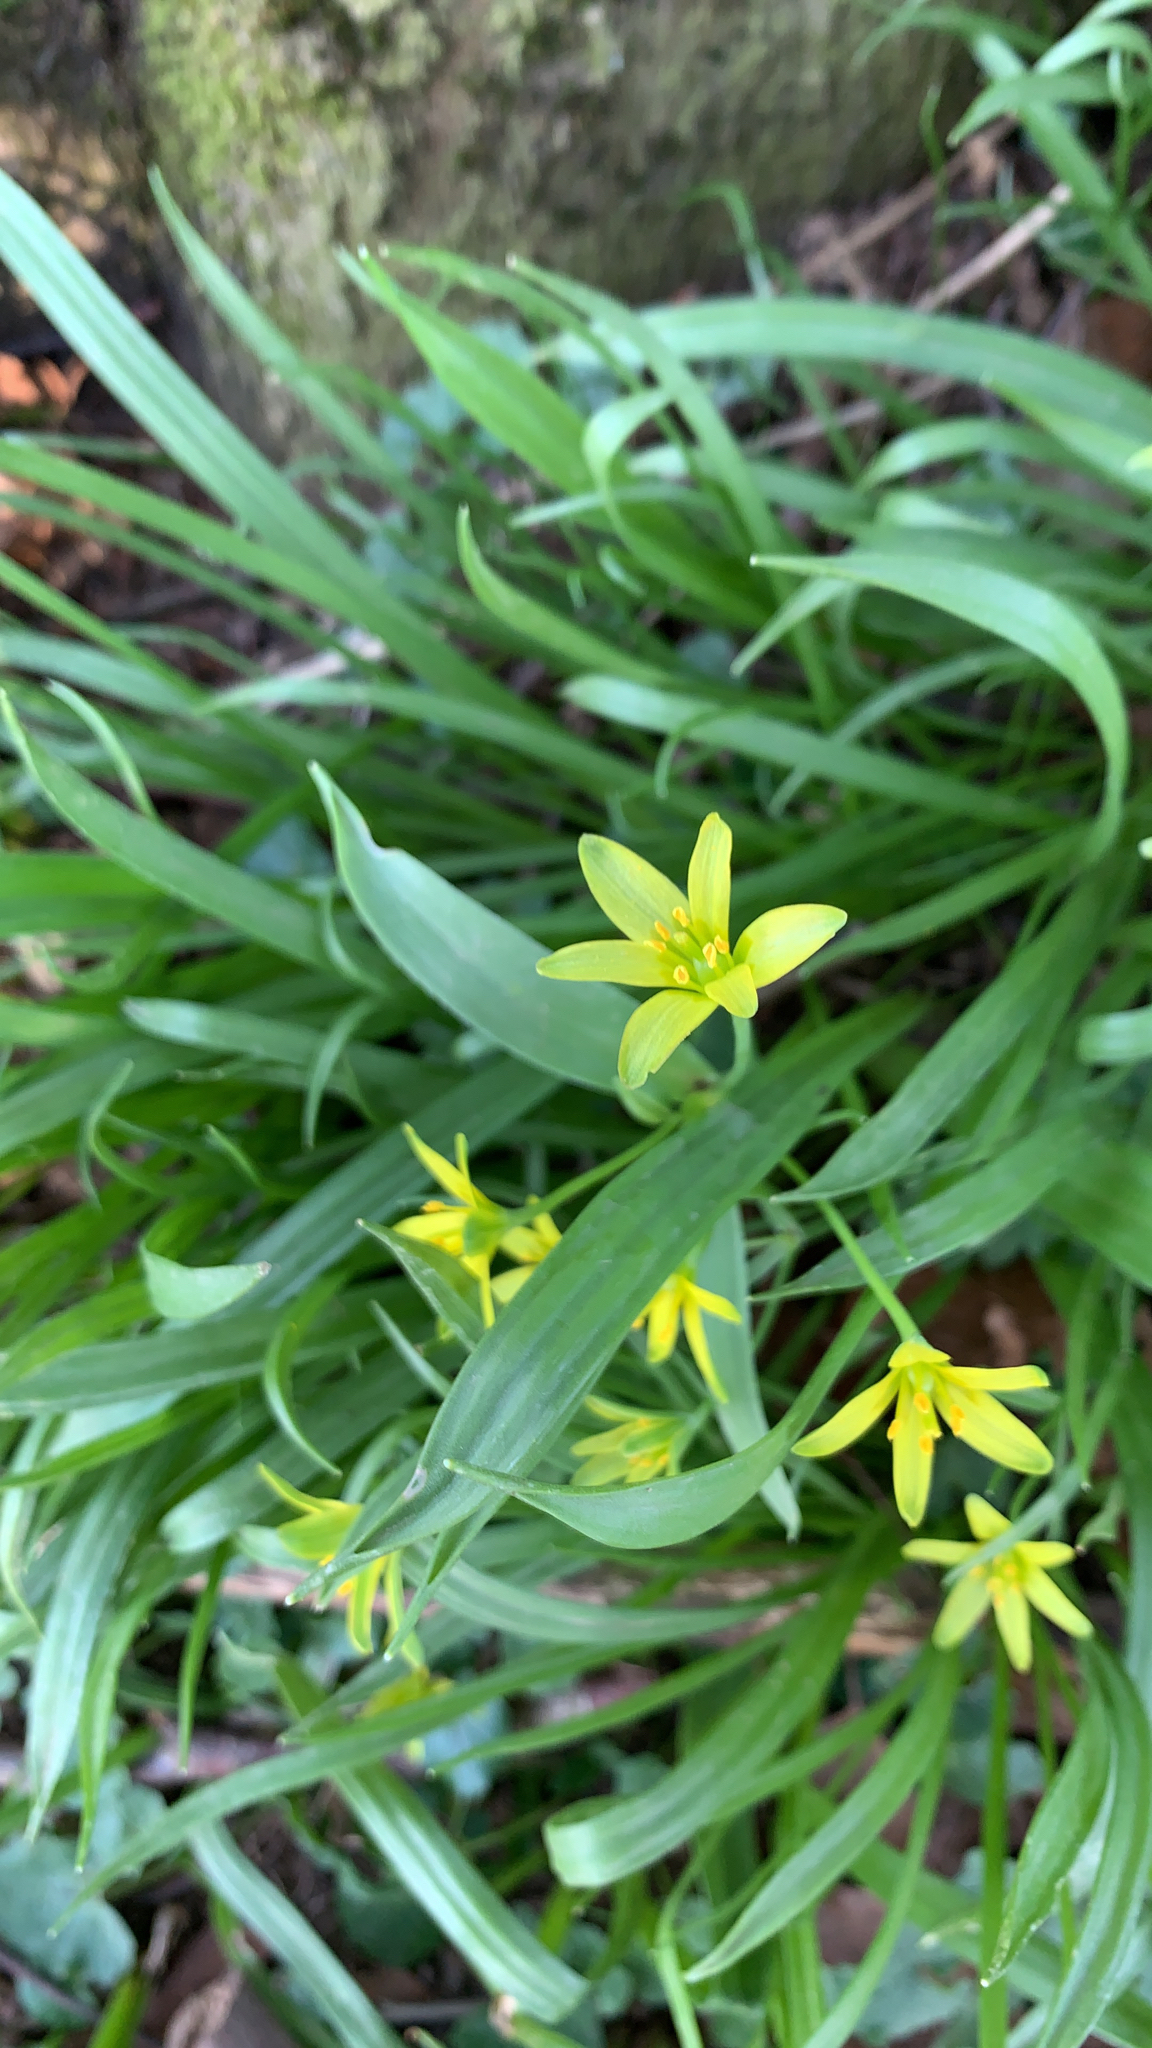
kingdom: Plantae
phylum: Tracheophyta
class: Liliopsida
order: Liliales
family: Liliaceae
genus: Gagea
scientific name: Gagea lutea
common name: Yellow star-of-bethlehem
